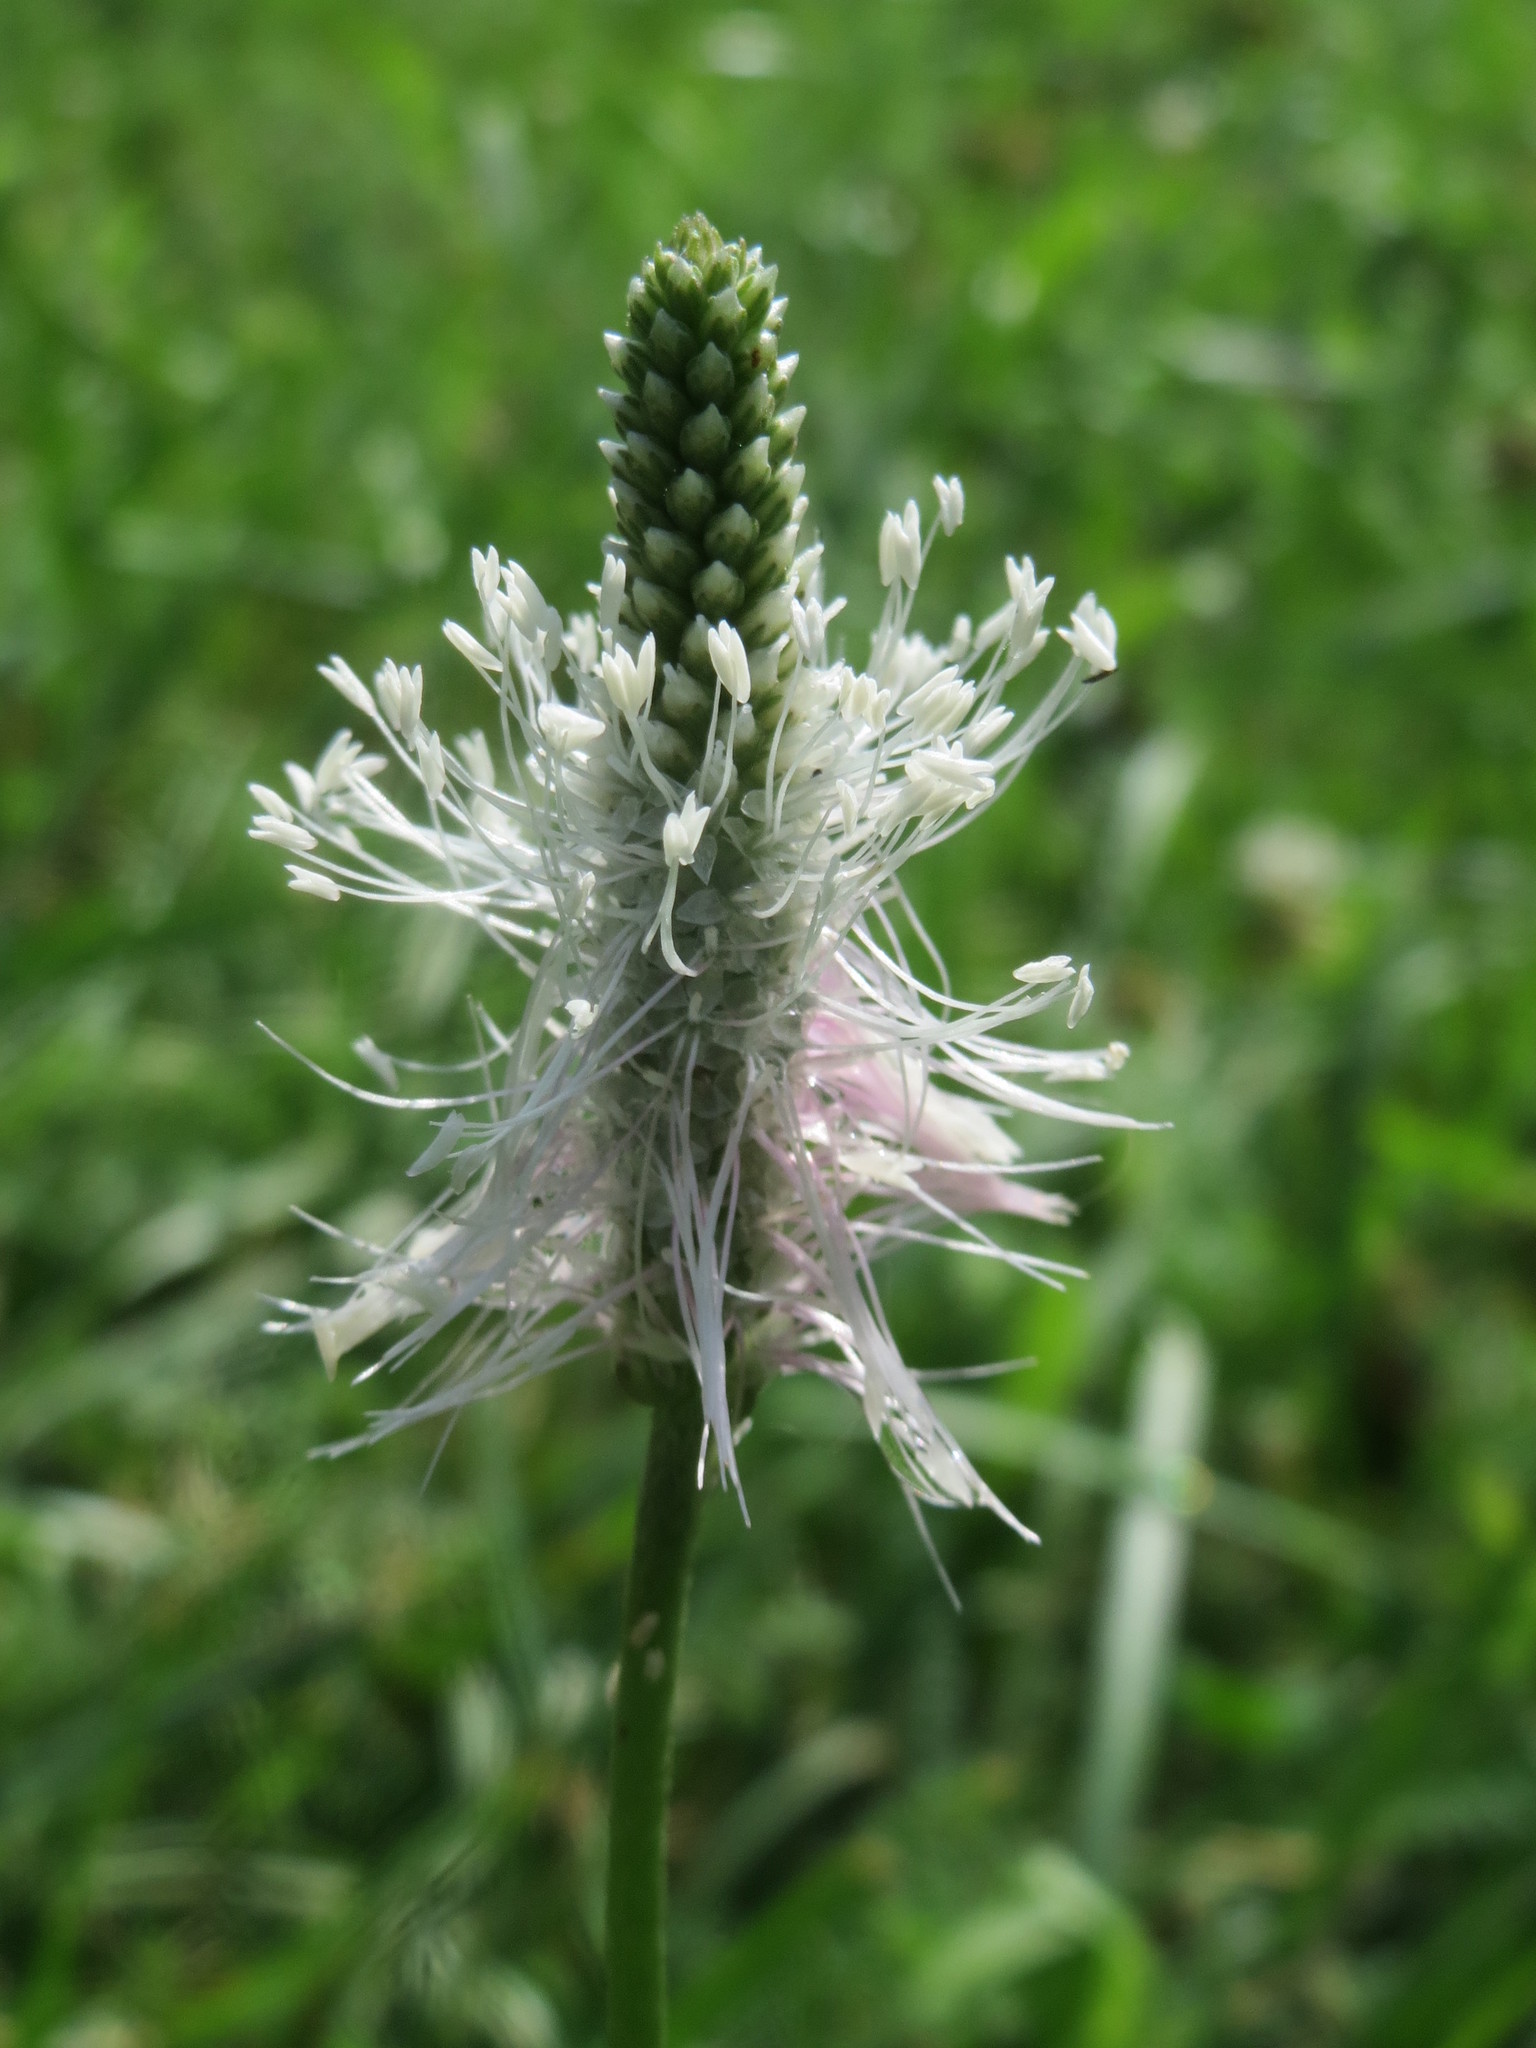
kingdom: Plantae
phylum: Tracheophyta
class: Magnoliopsida
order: Lamiales
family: Plantaginaceae
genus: Plantago
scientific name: Plantago media
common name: Hoary plantain
